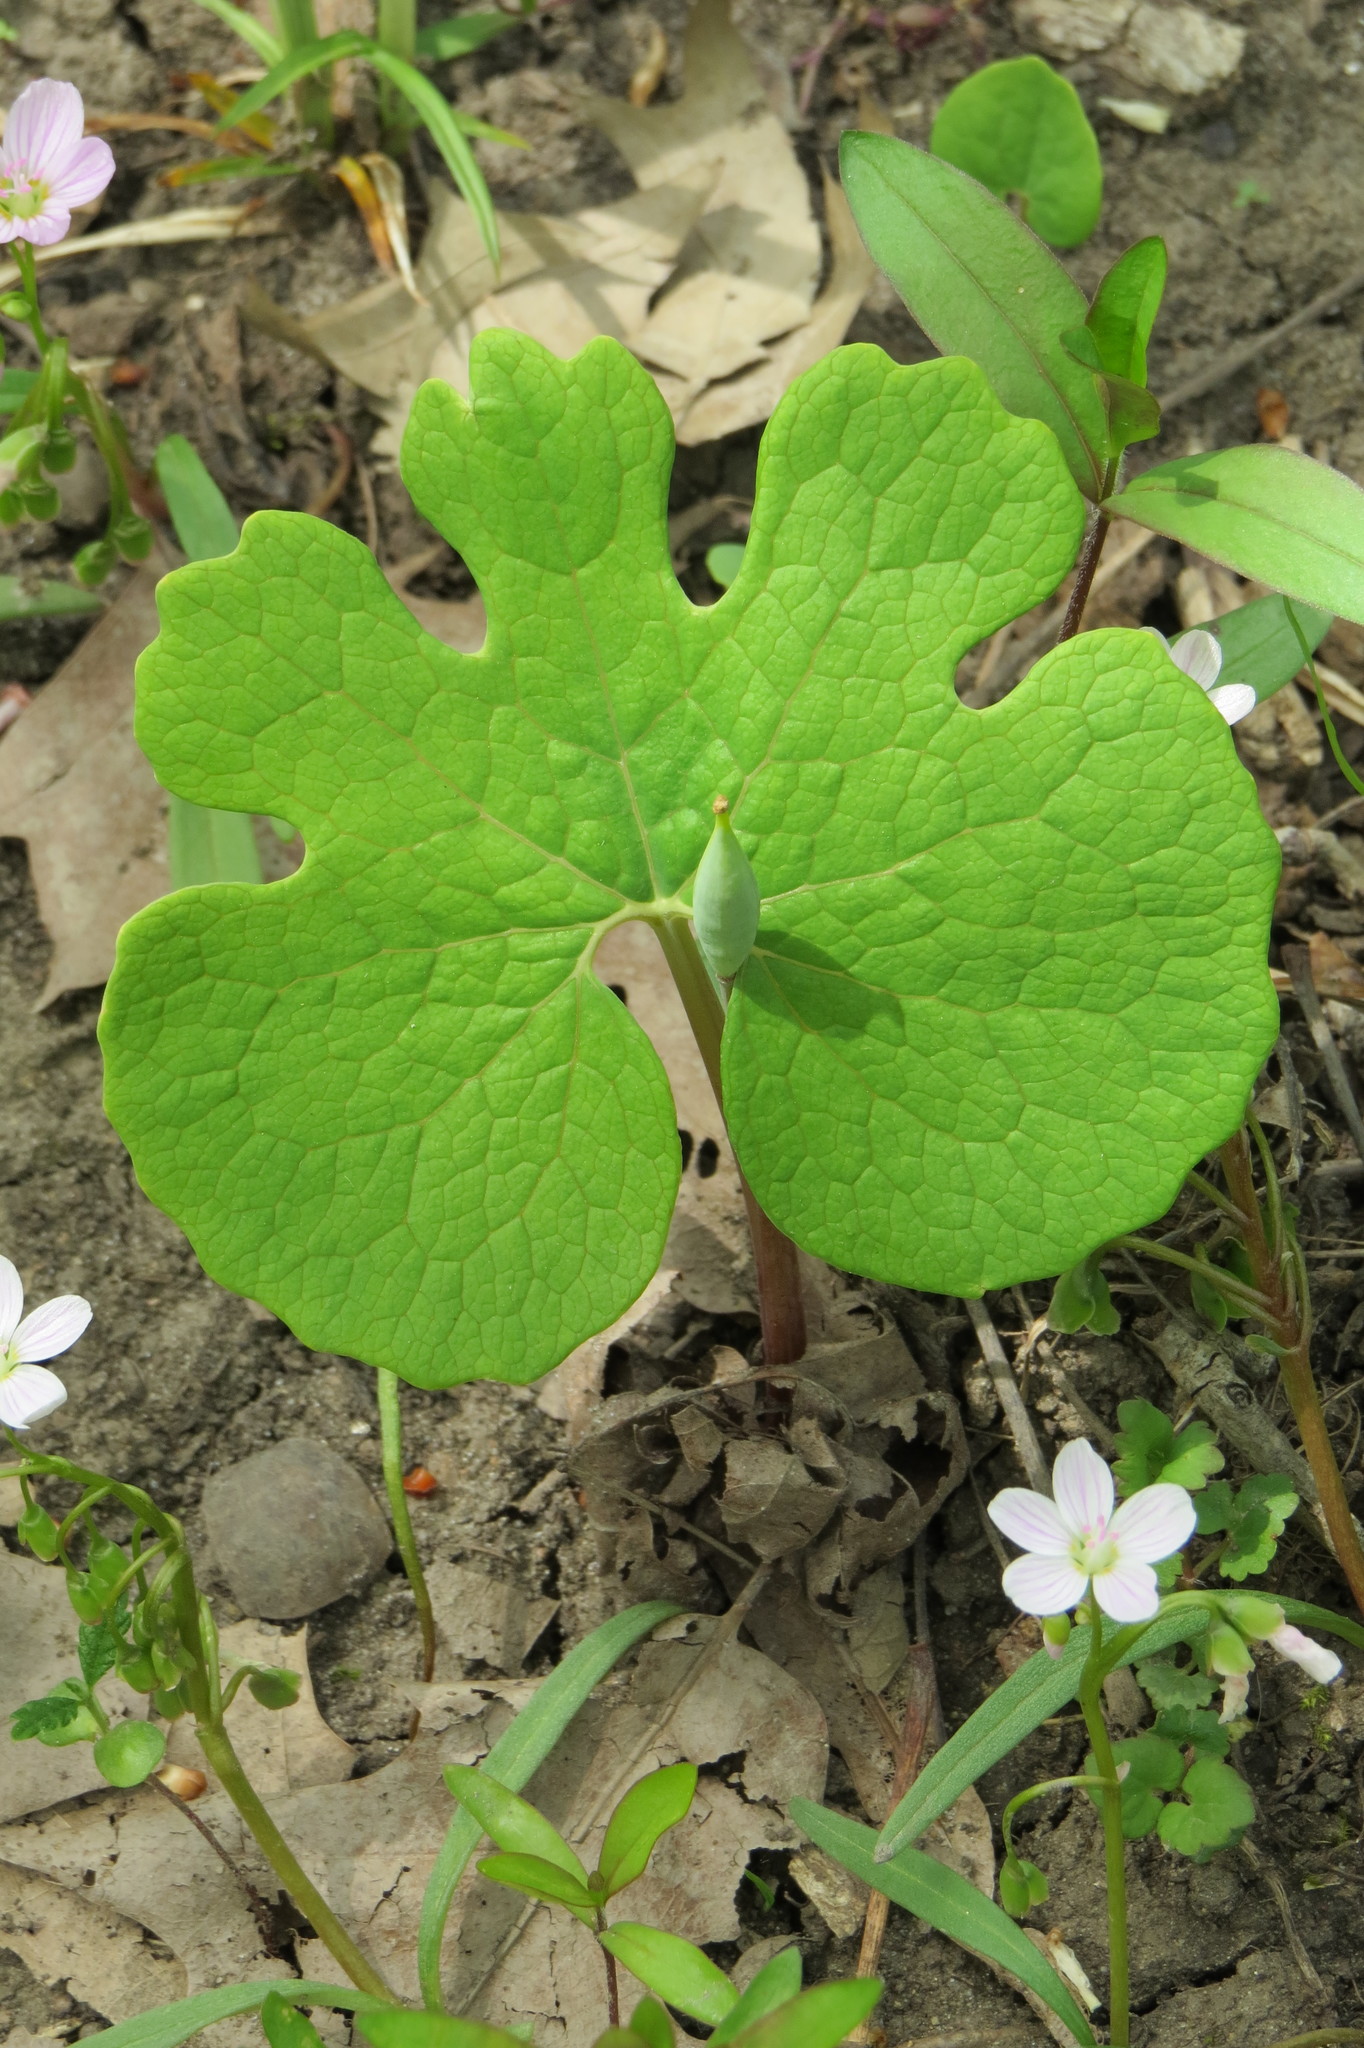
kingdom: Plantae
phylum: Tracheophyta
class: Magnoliopsida
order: Ranunculales
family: Papaveraceae
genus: Sanguinaria
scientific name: Sanguinaria canadensis
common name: Bloodroot
